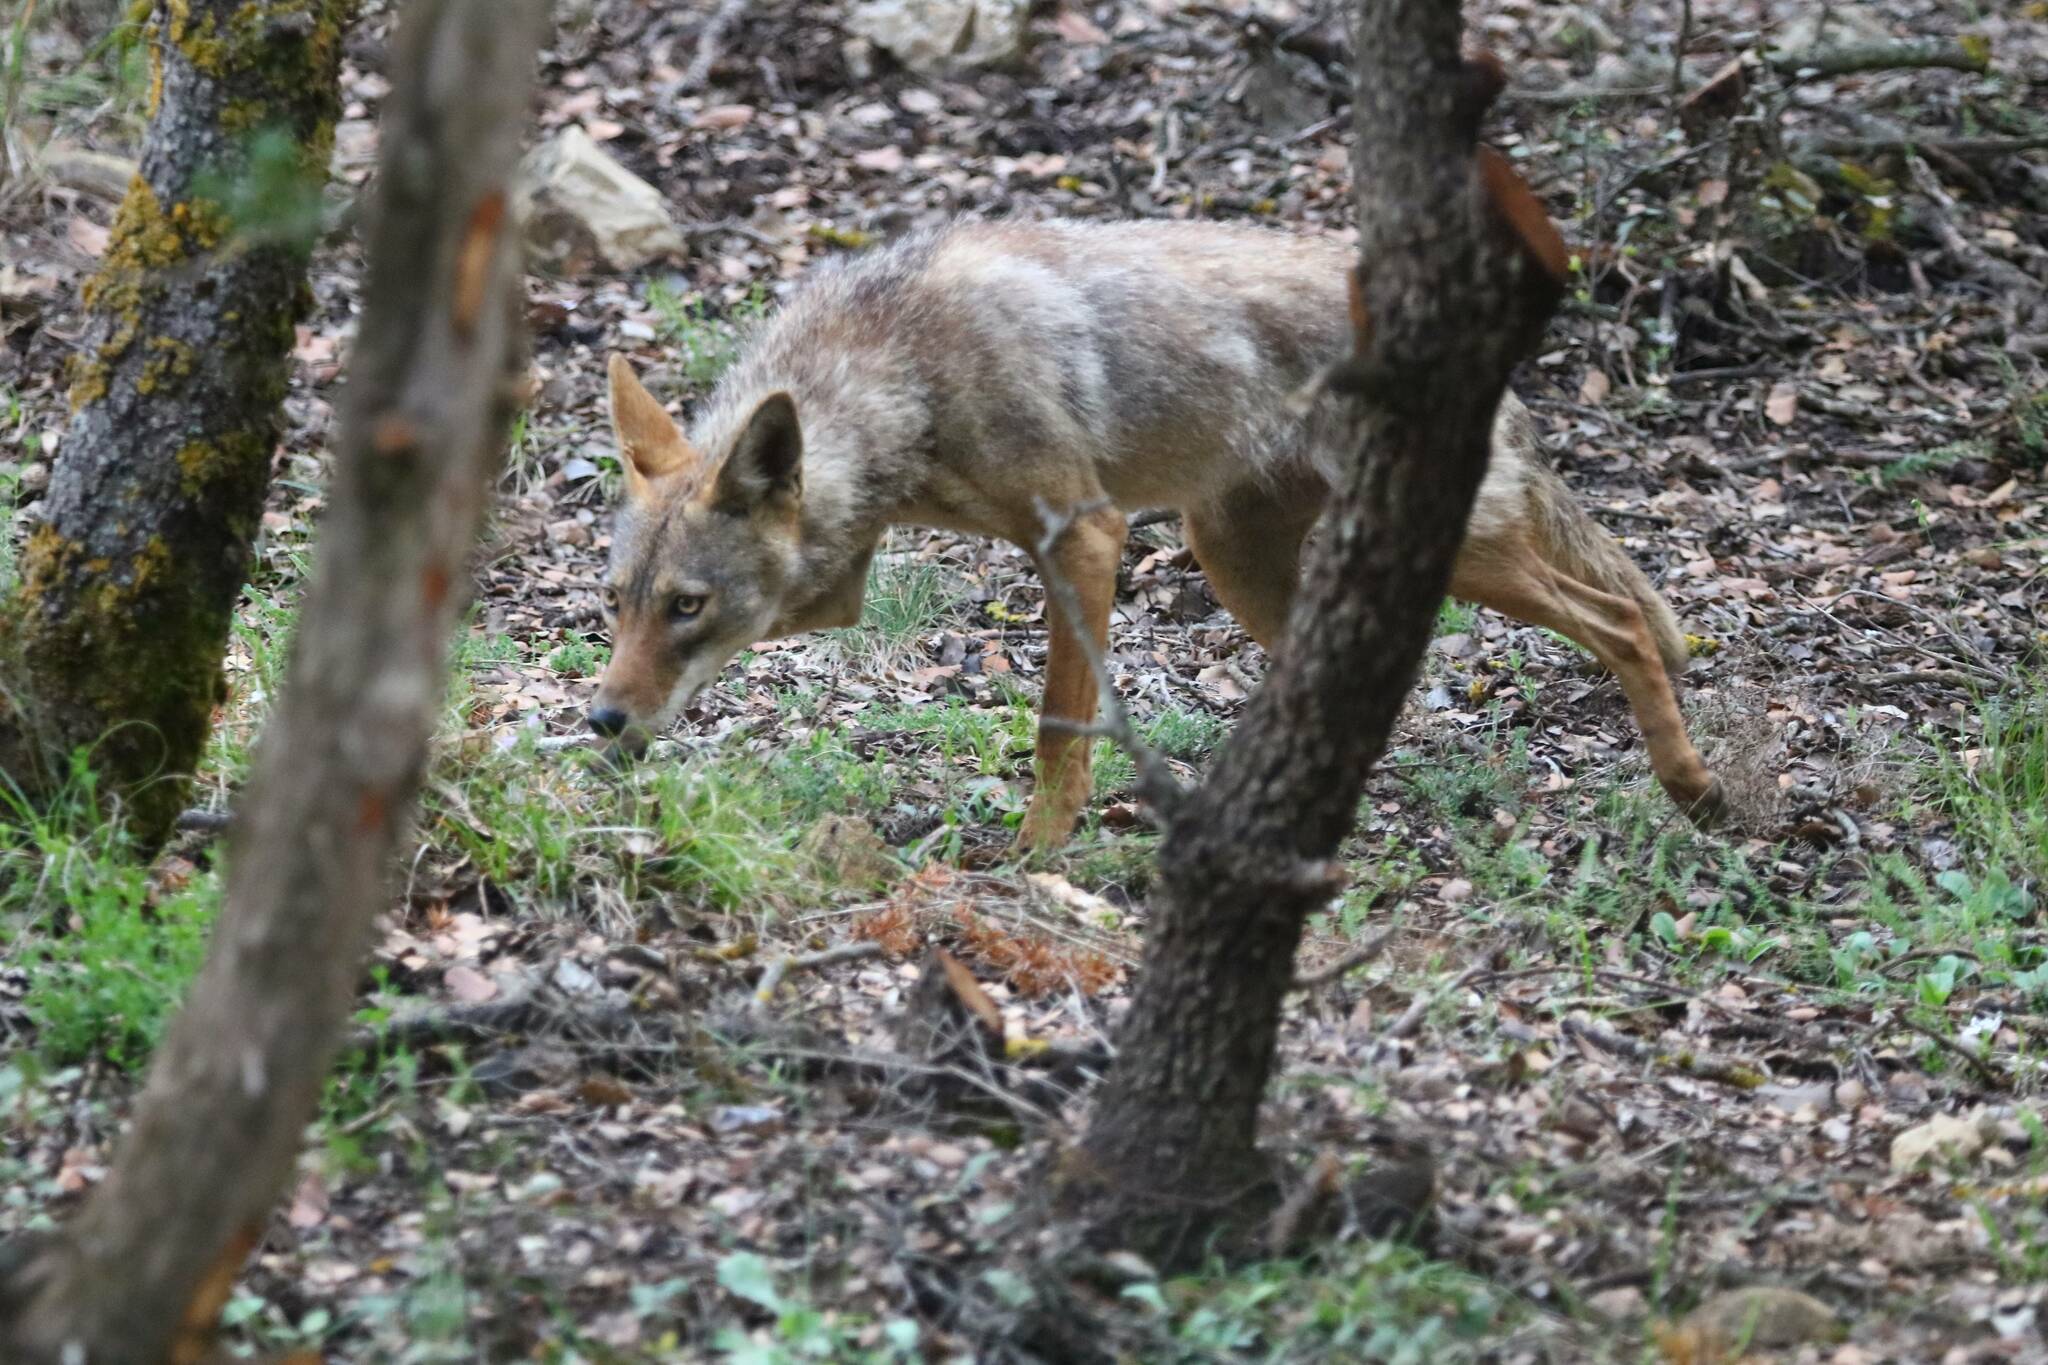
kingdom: Animalia
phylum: Chordata
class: Mammalia
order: Carnivora
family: Canidae
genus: Canis
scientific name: Canis lupaster
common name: African golden wolf
